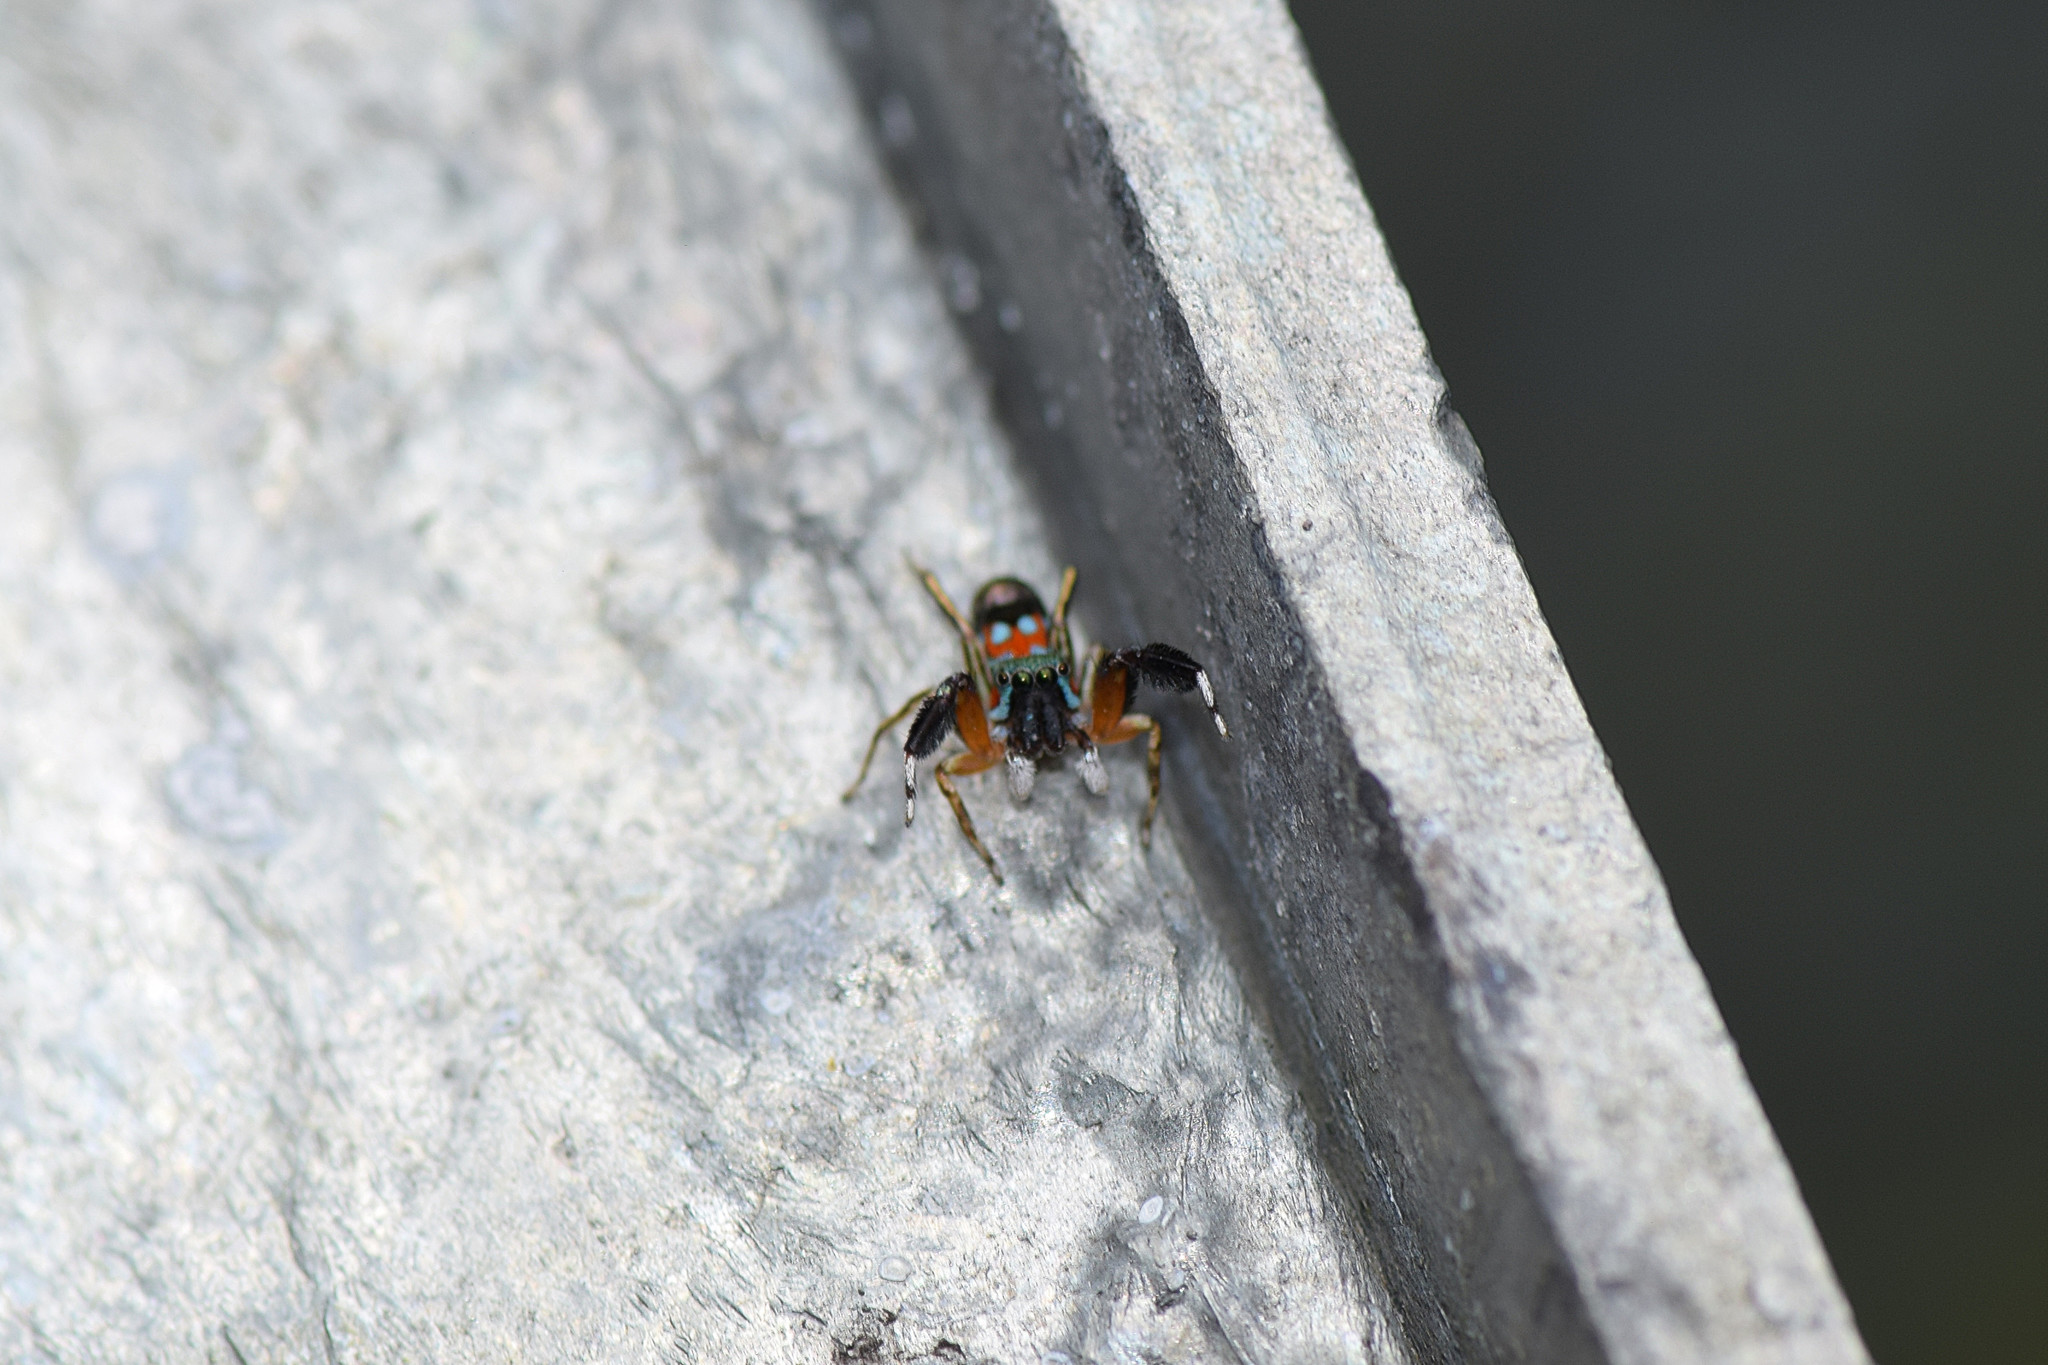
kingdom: Animalia
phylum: Arthropoda
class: Arachnida
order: Araneae
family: Salticidae
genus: Siler
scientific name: Siler semiglaucus
